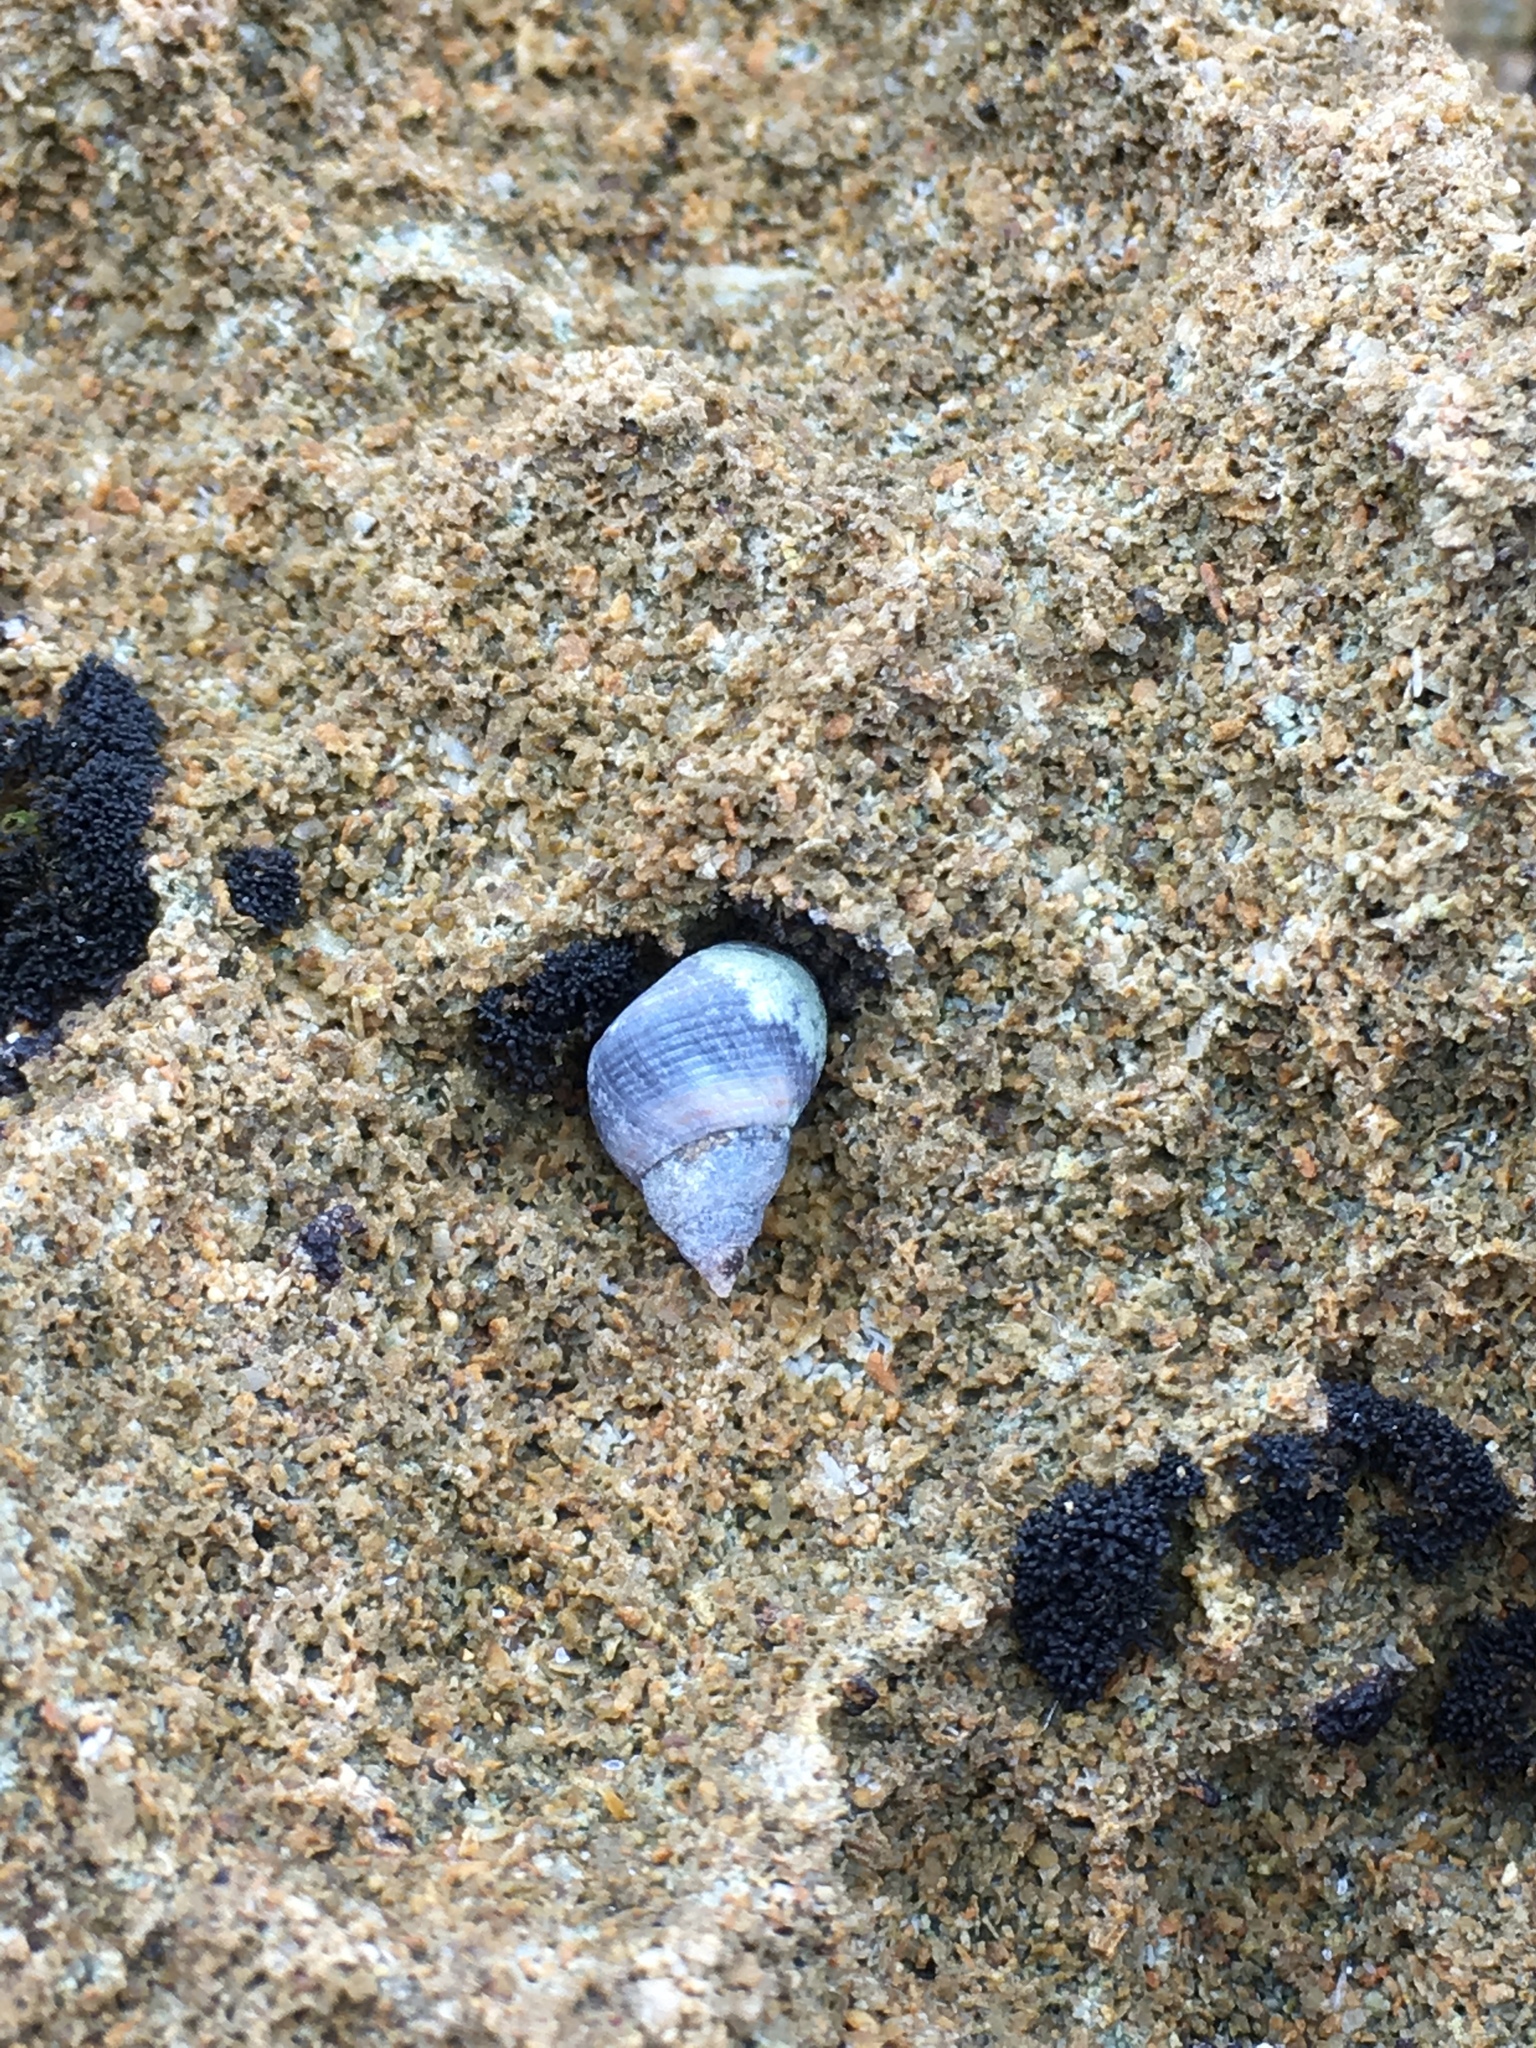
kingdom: Animalia
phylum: Mollusca
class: Gastropoda
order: Littorinimorpha
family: Littorinidae
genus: Austrolittorina
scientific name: Austrolittorina unifasciata
